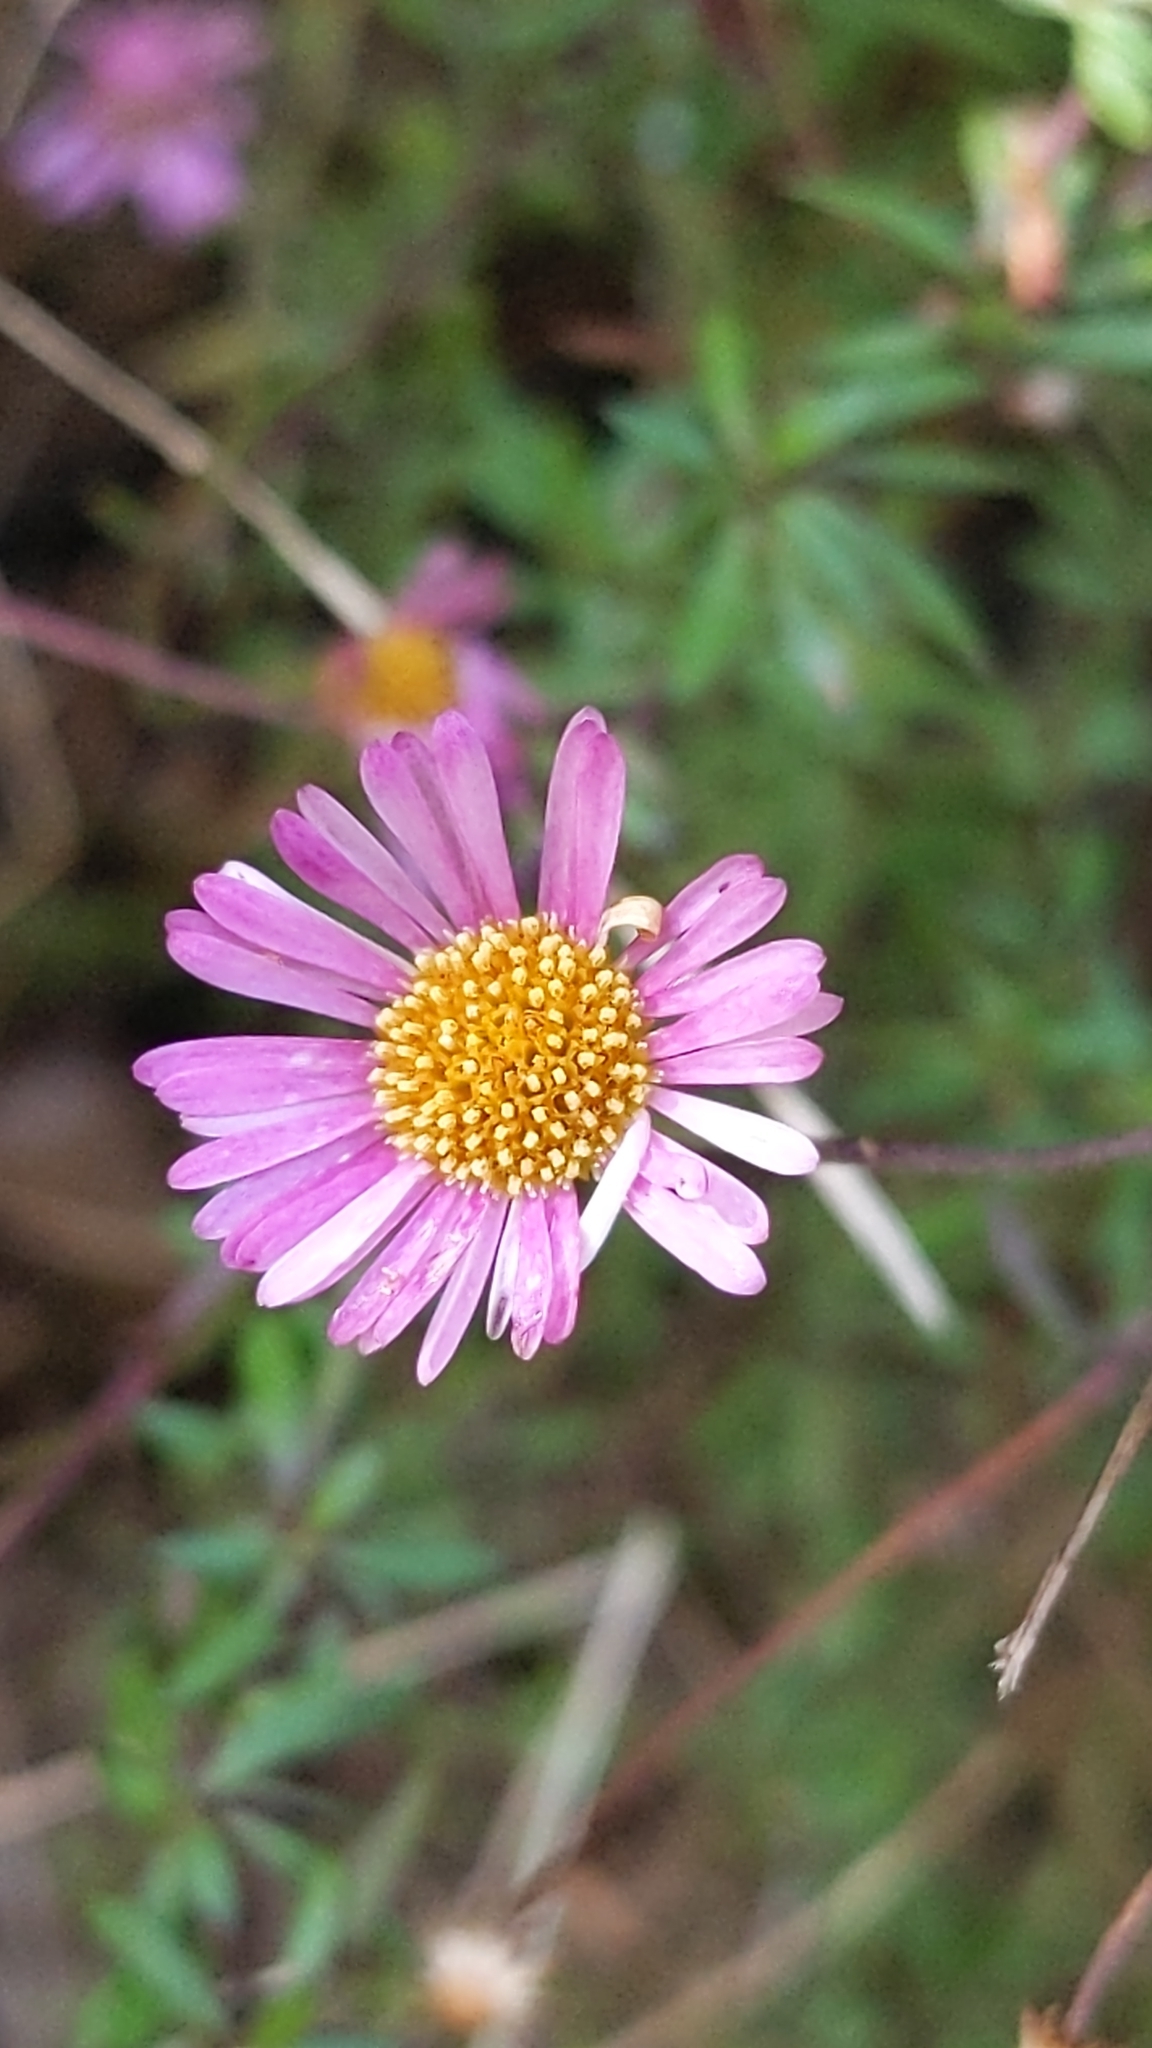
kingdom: Plantae
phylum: Tracheophyta
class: Magnoliopsida
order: Asterales
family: Asteraceae
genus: Erigeron
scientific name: Erigeron karvinskianus
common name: Mexican fleabane
